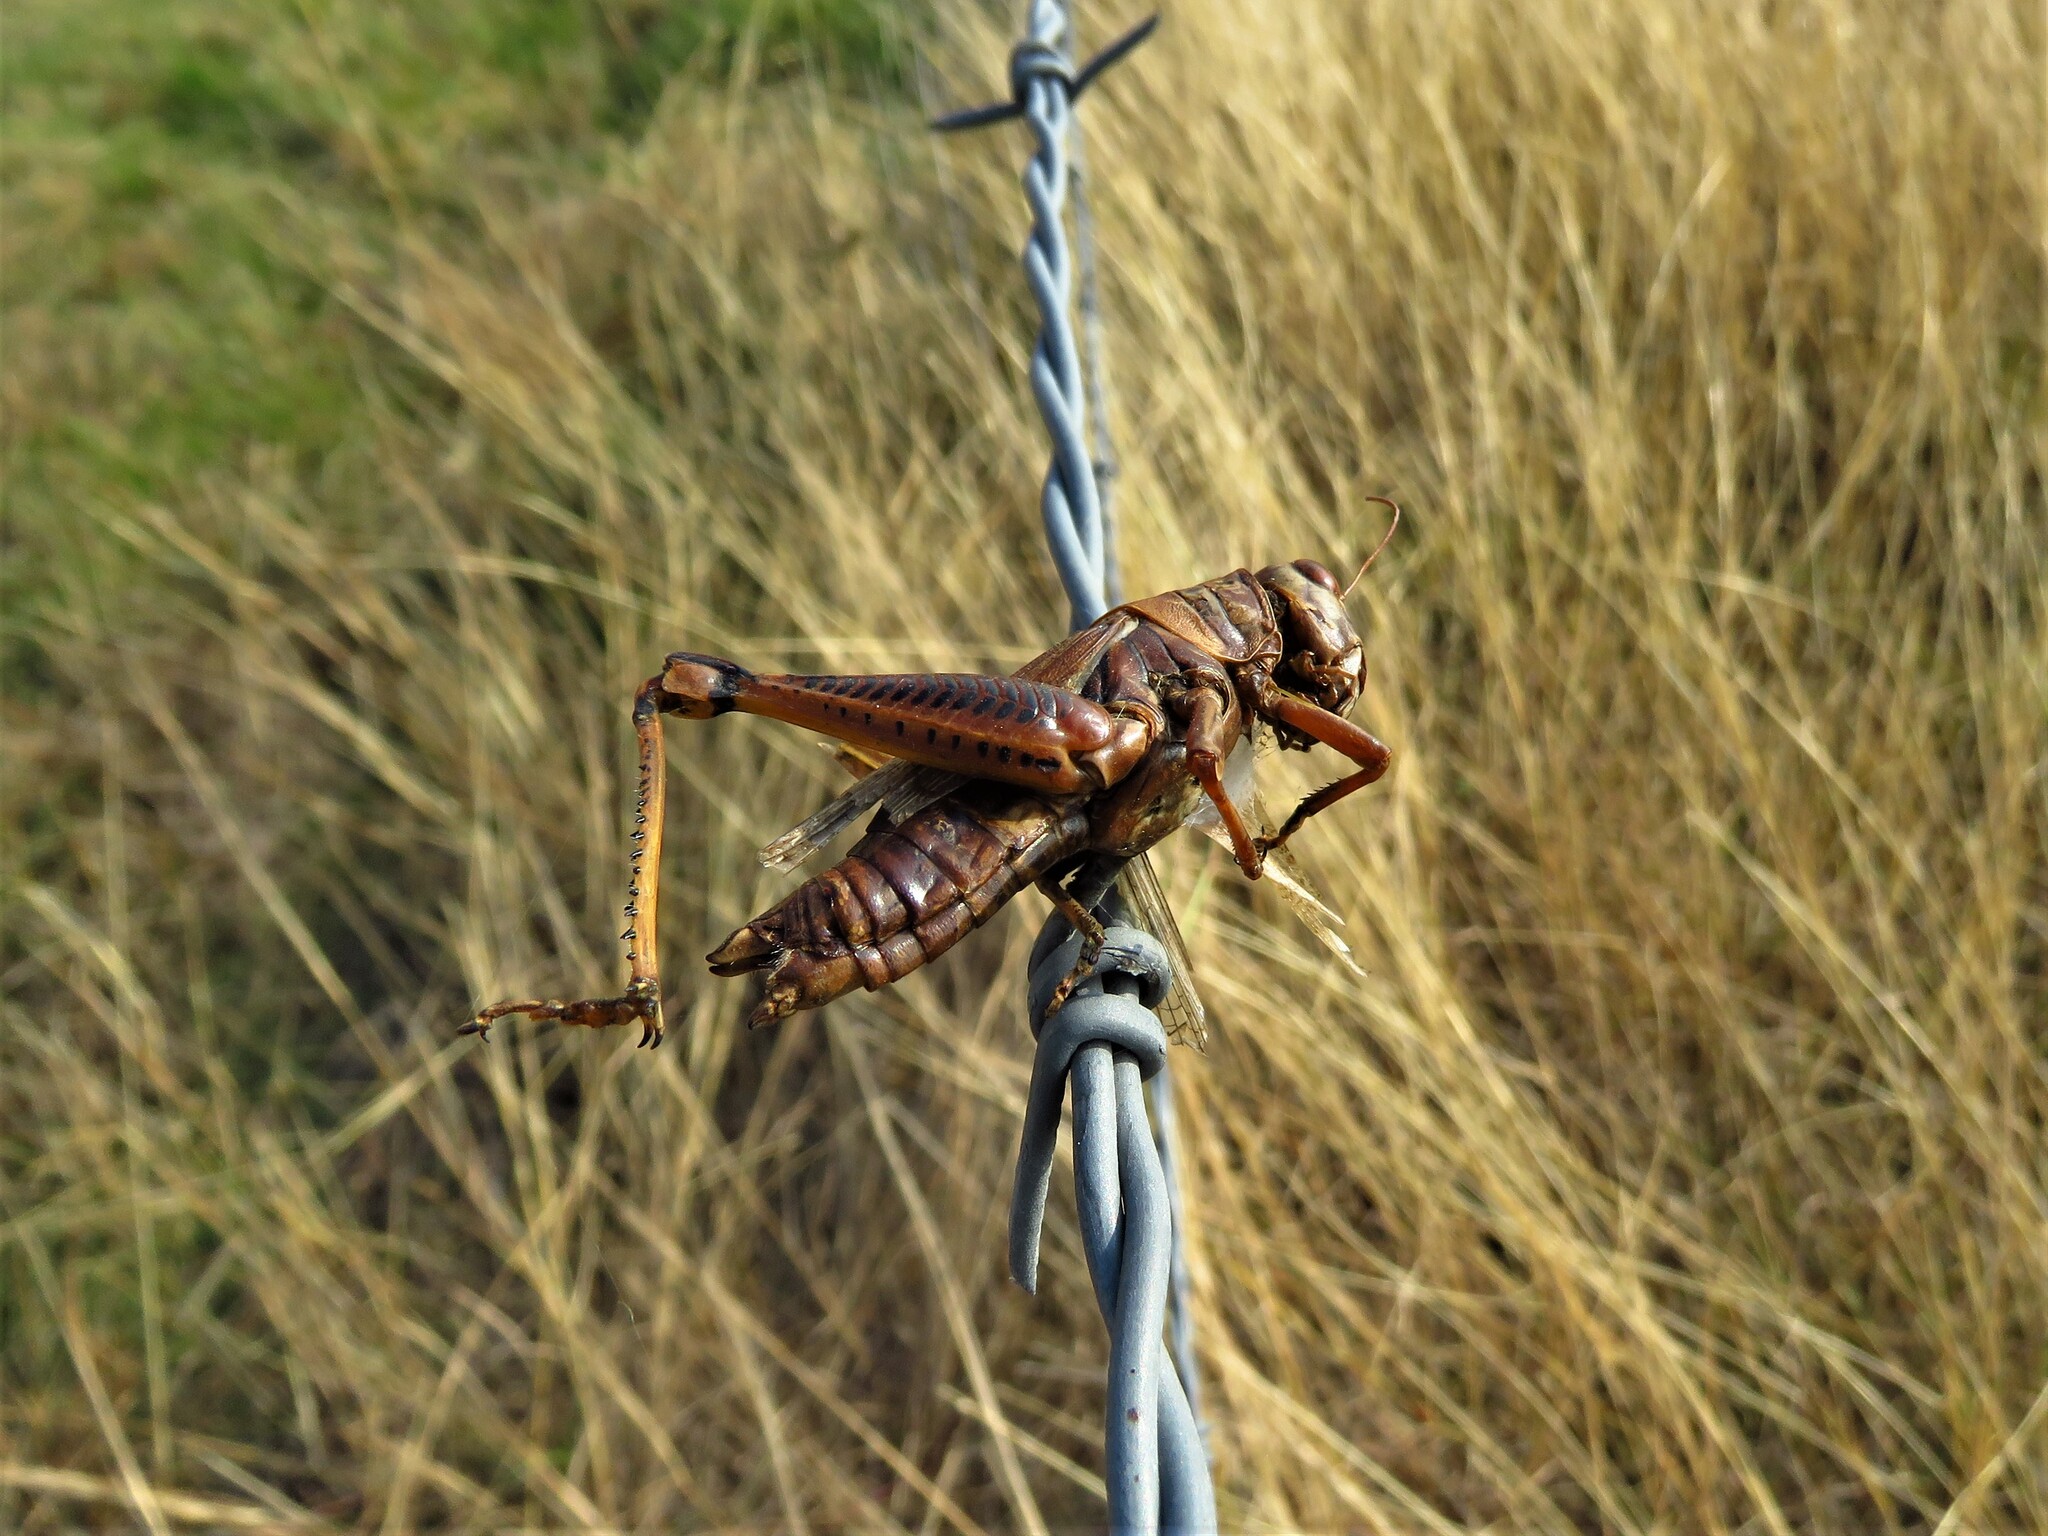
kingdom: Animalia
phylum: Arthropoda
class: Insecta
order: Orthoptera
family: Acrididae
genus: Melanoplus
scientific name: Melanoplus differentialis
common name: Differential grasshopper
